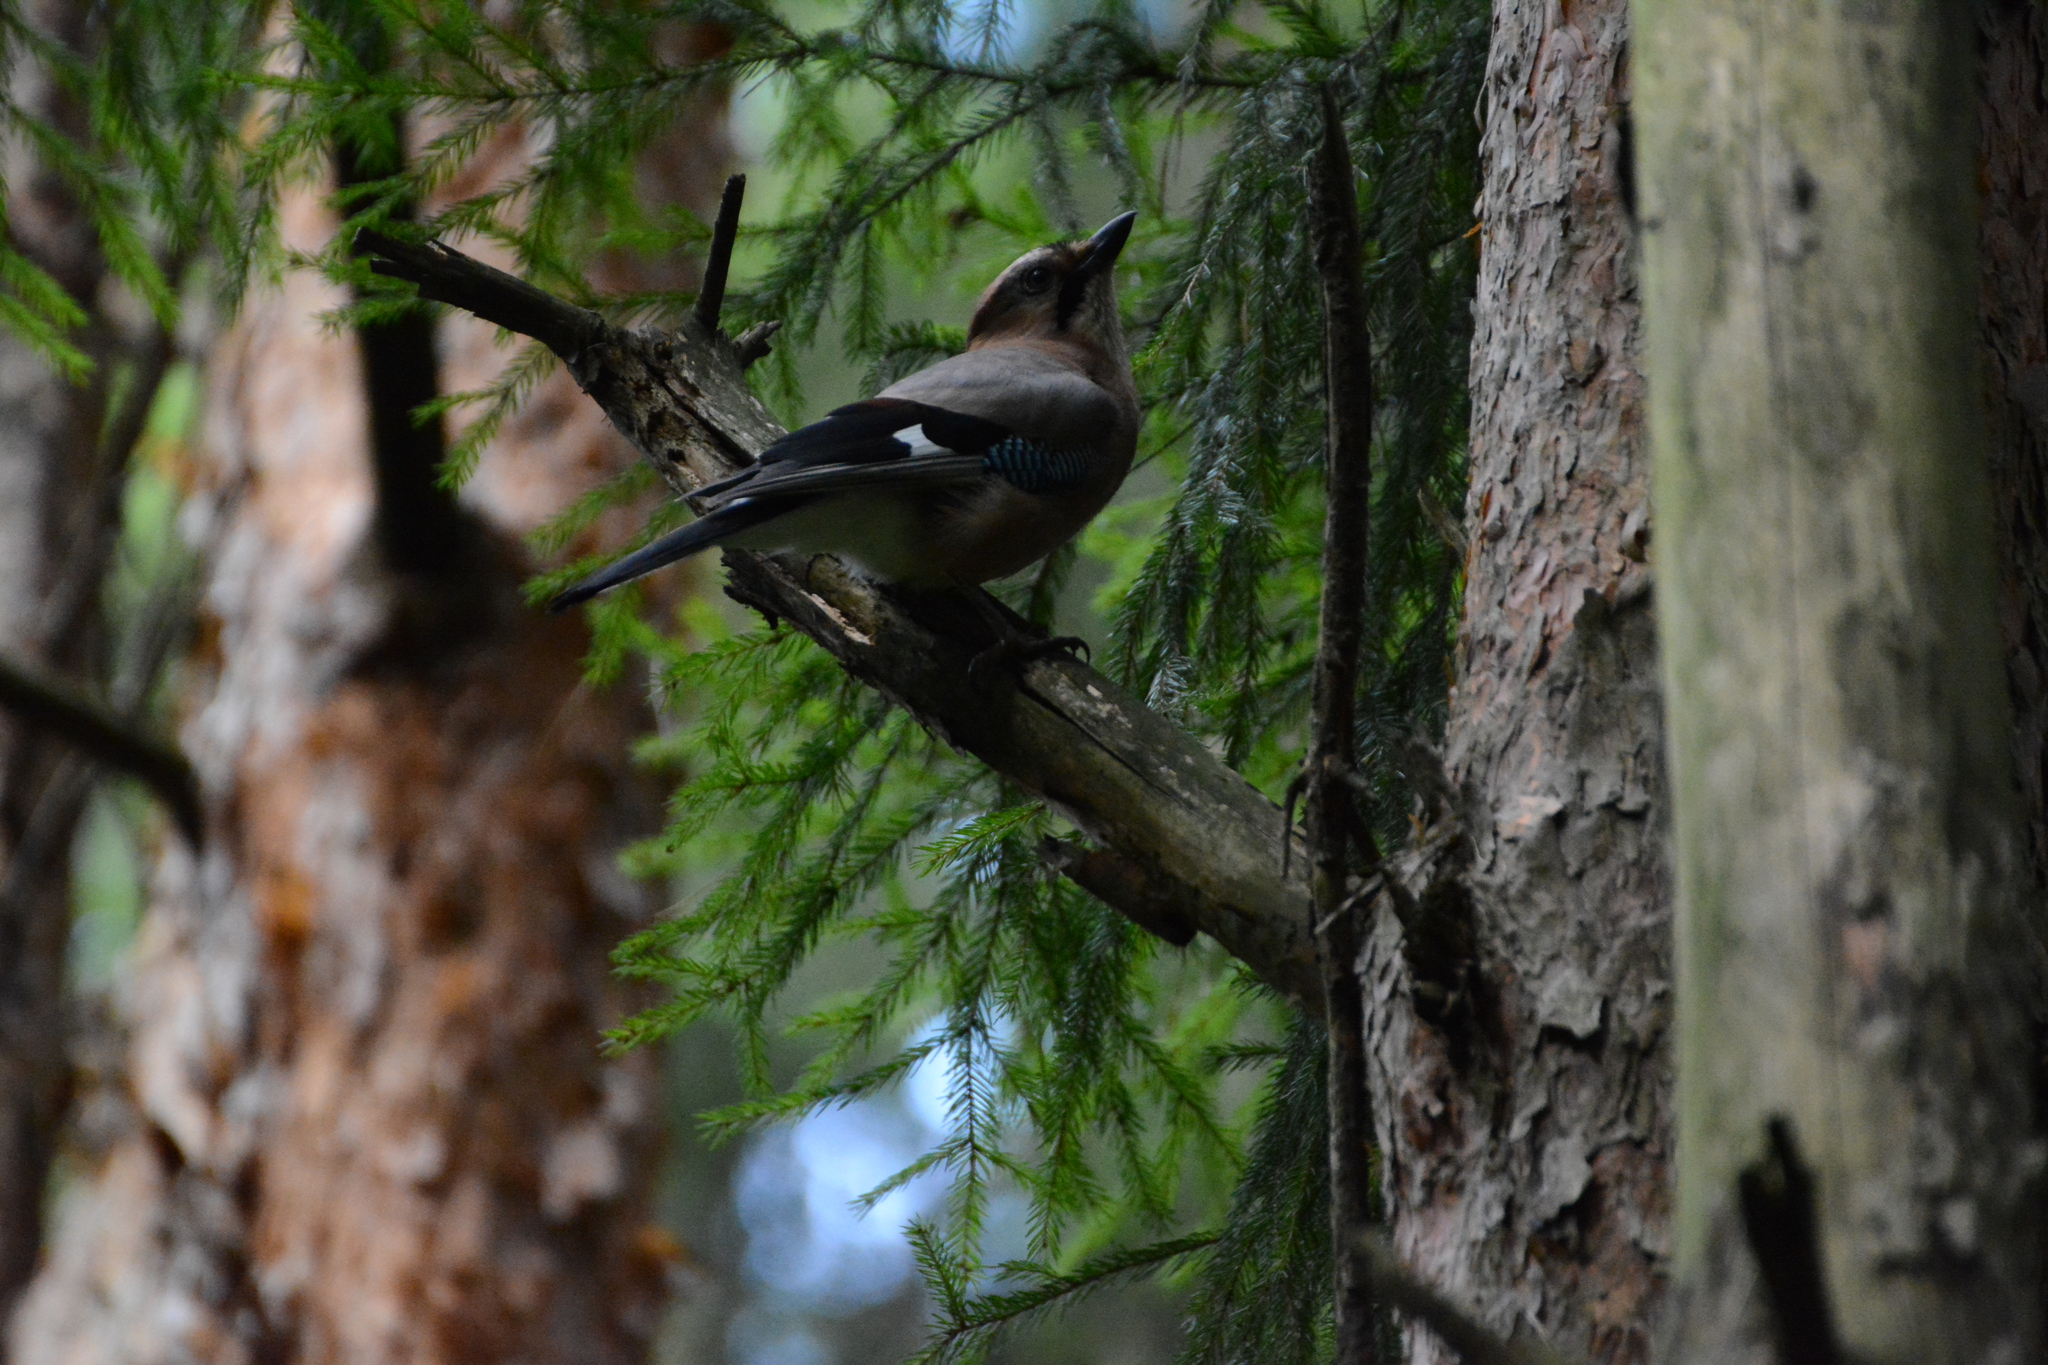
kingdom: Animalia
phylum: Chordata
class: Aves
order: Passeriformes
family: Corvidae
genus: Garrulus
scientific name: Garrulus glandarius
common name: Eurasian jay
